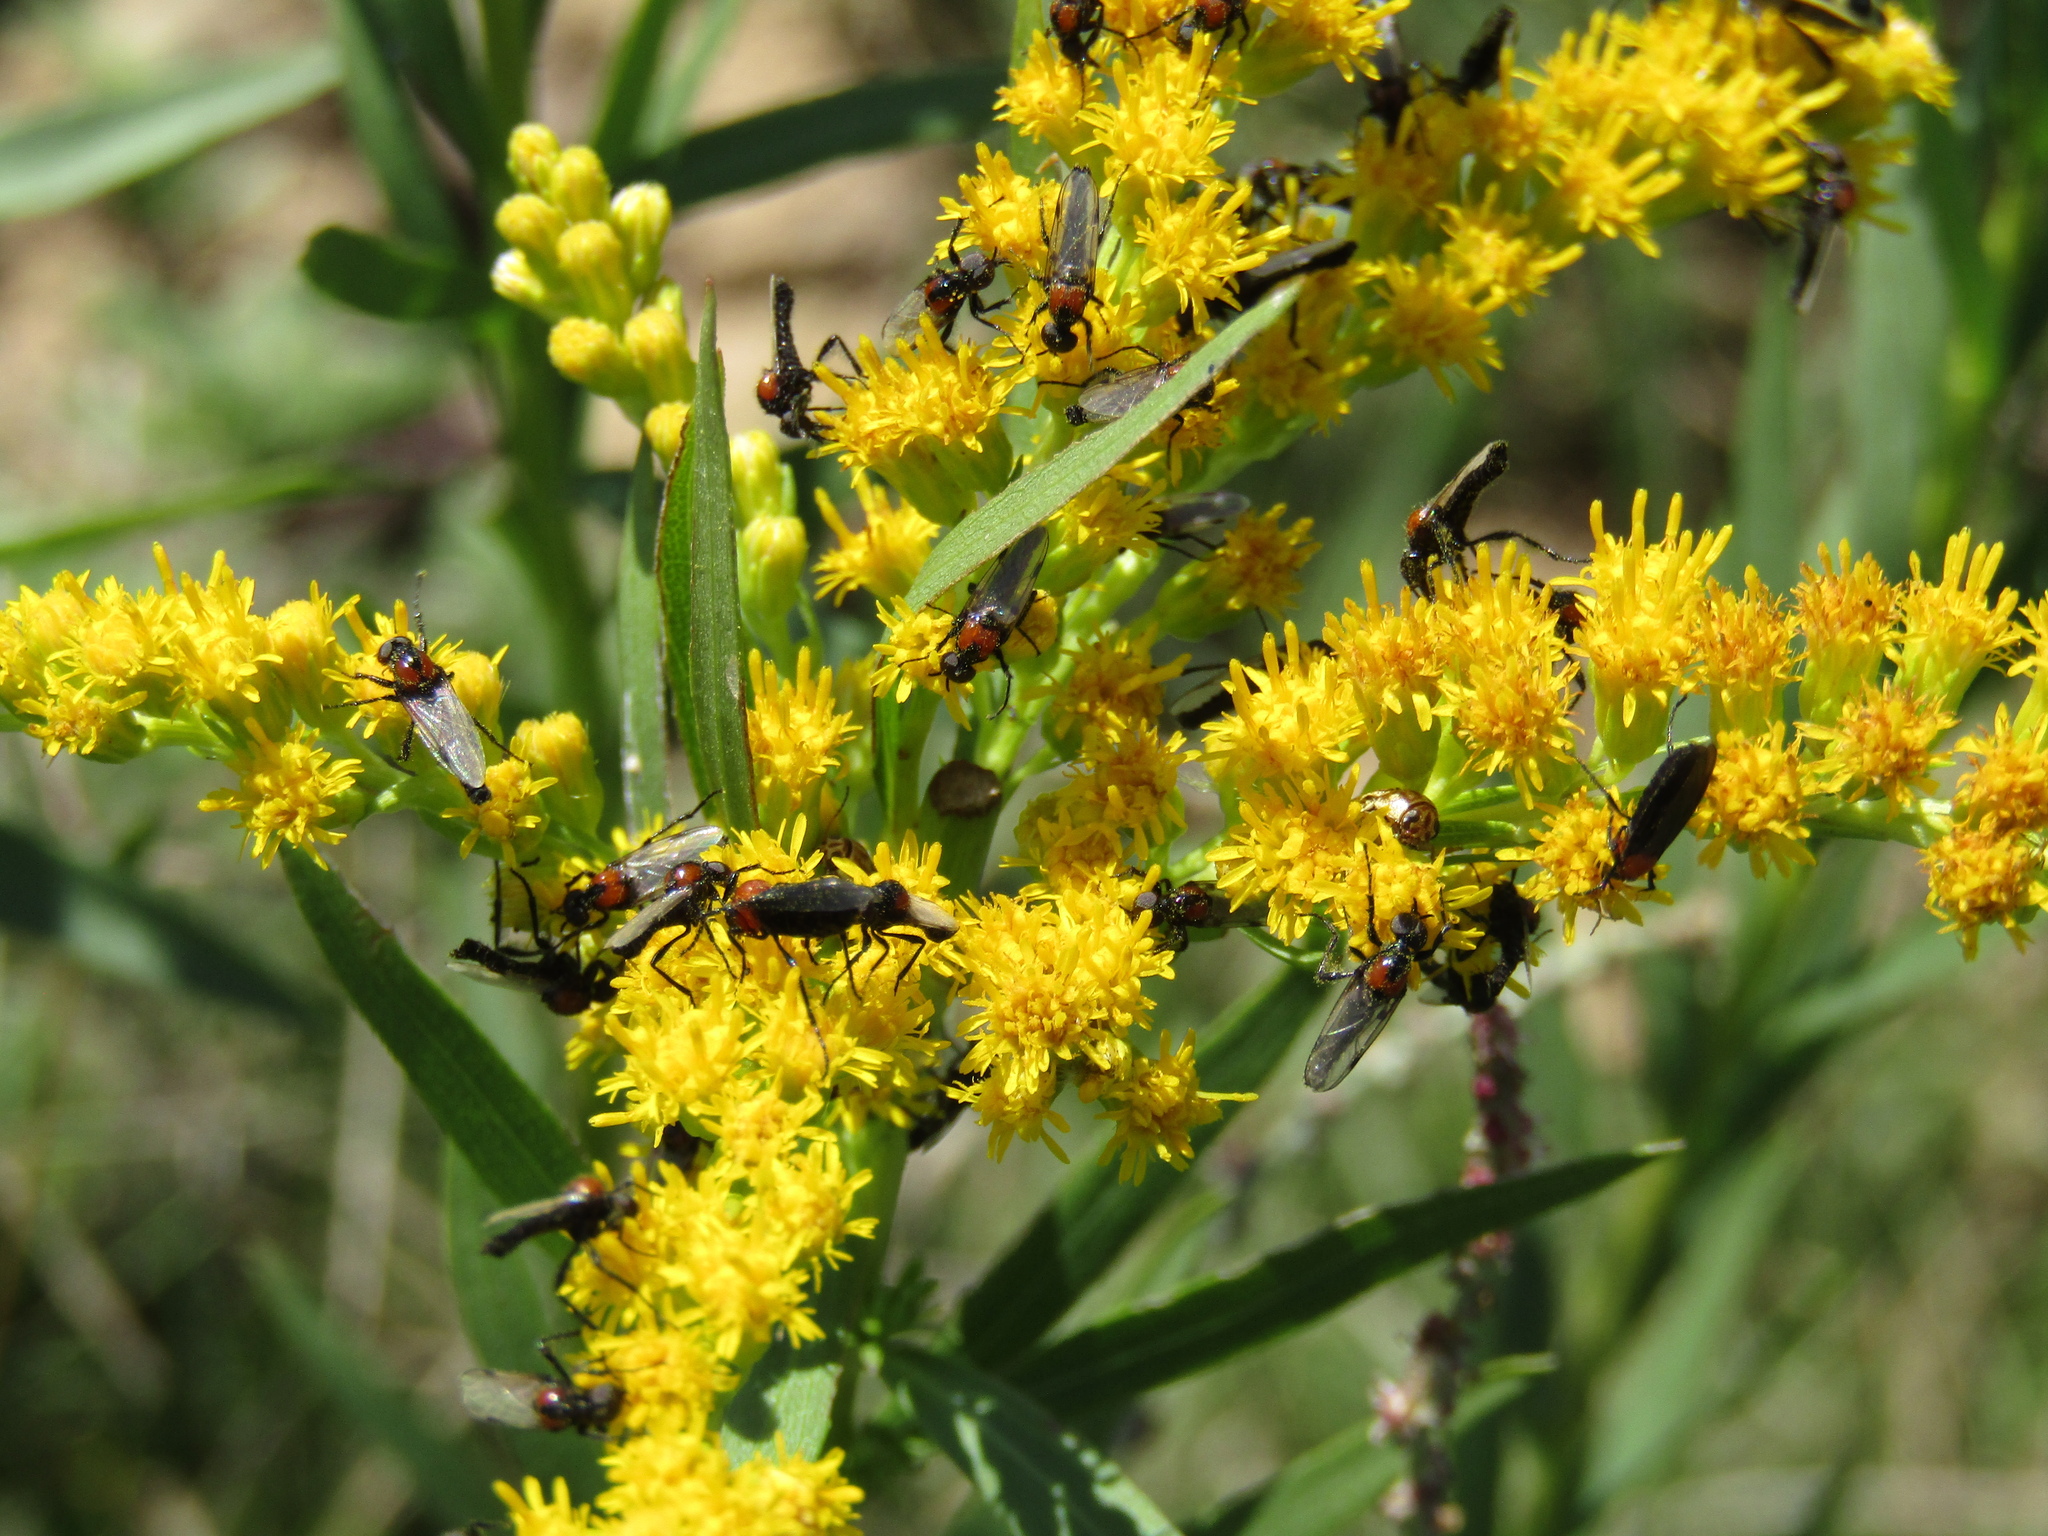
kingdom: Plantae
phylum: Tracheophyta
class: Magnoliopsida
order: Asterales
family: Asteraceae
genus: Solidago
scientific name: Solidago chilensis
